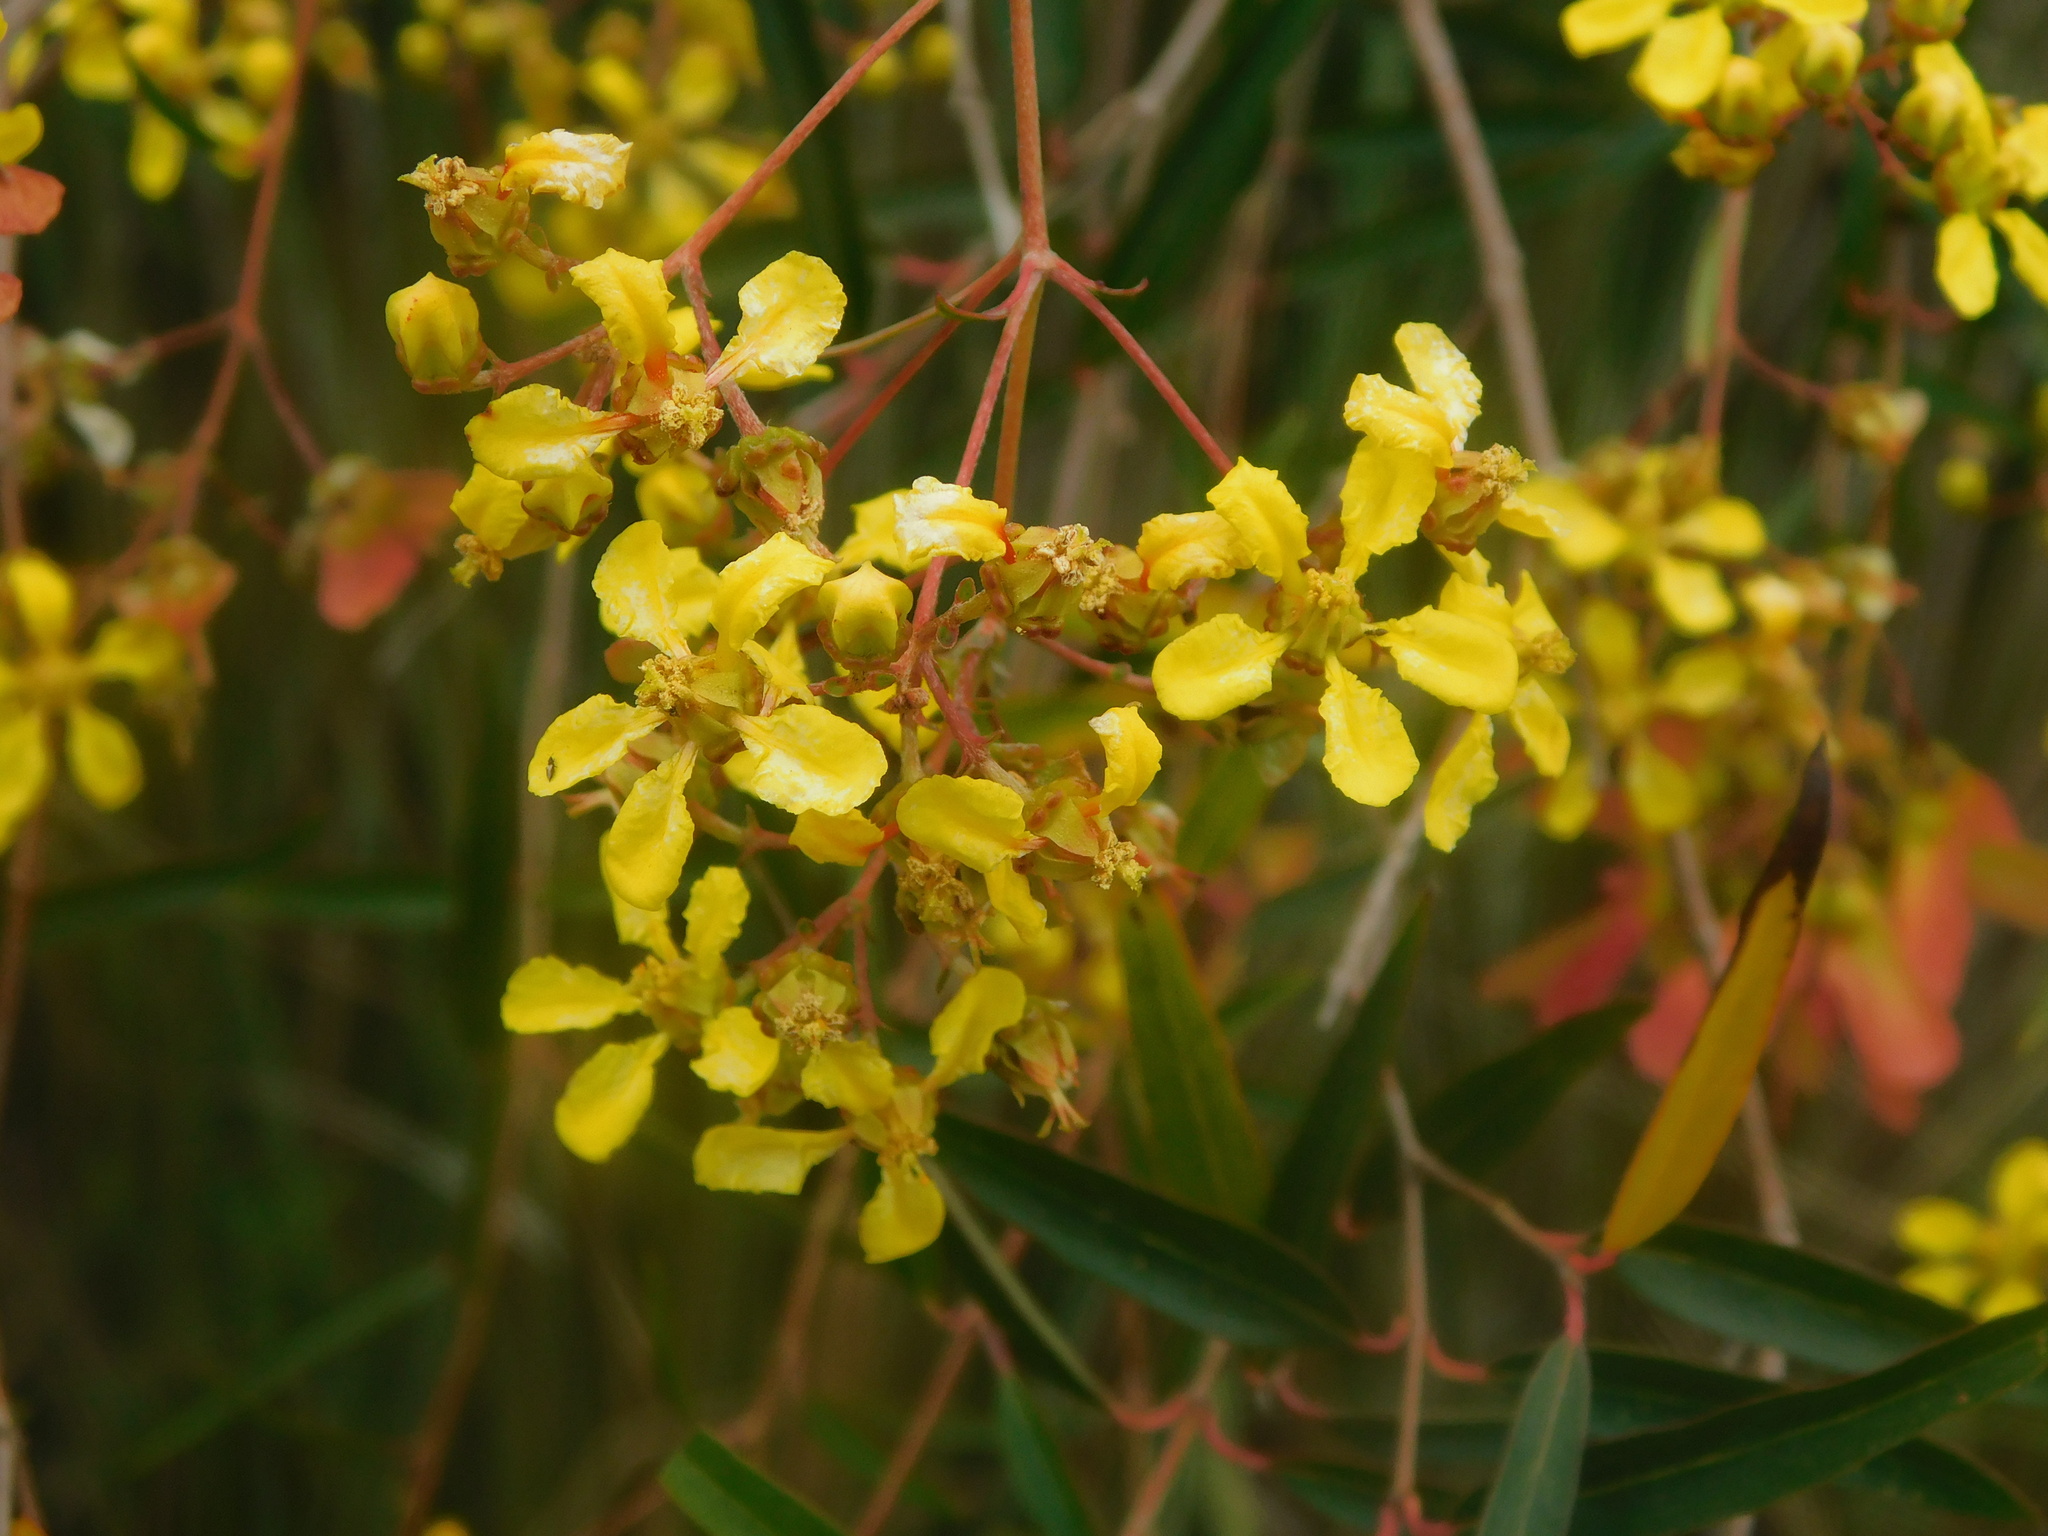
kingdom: Plantae
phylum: Tracheophyta
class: Magnoliopsida
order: Malpighiales
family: Malpighiaceae
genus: Heteropterys
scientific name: Heteropterys glabra
